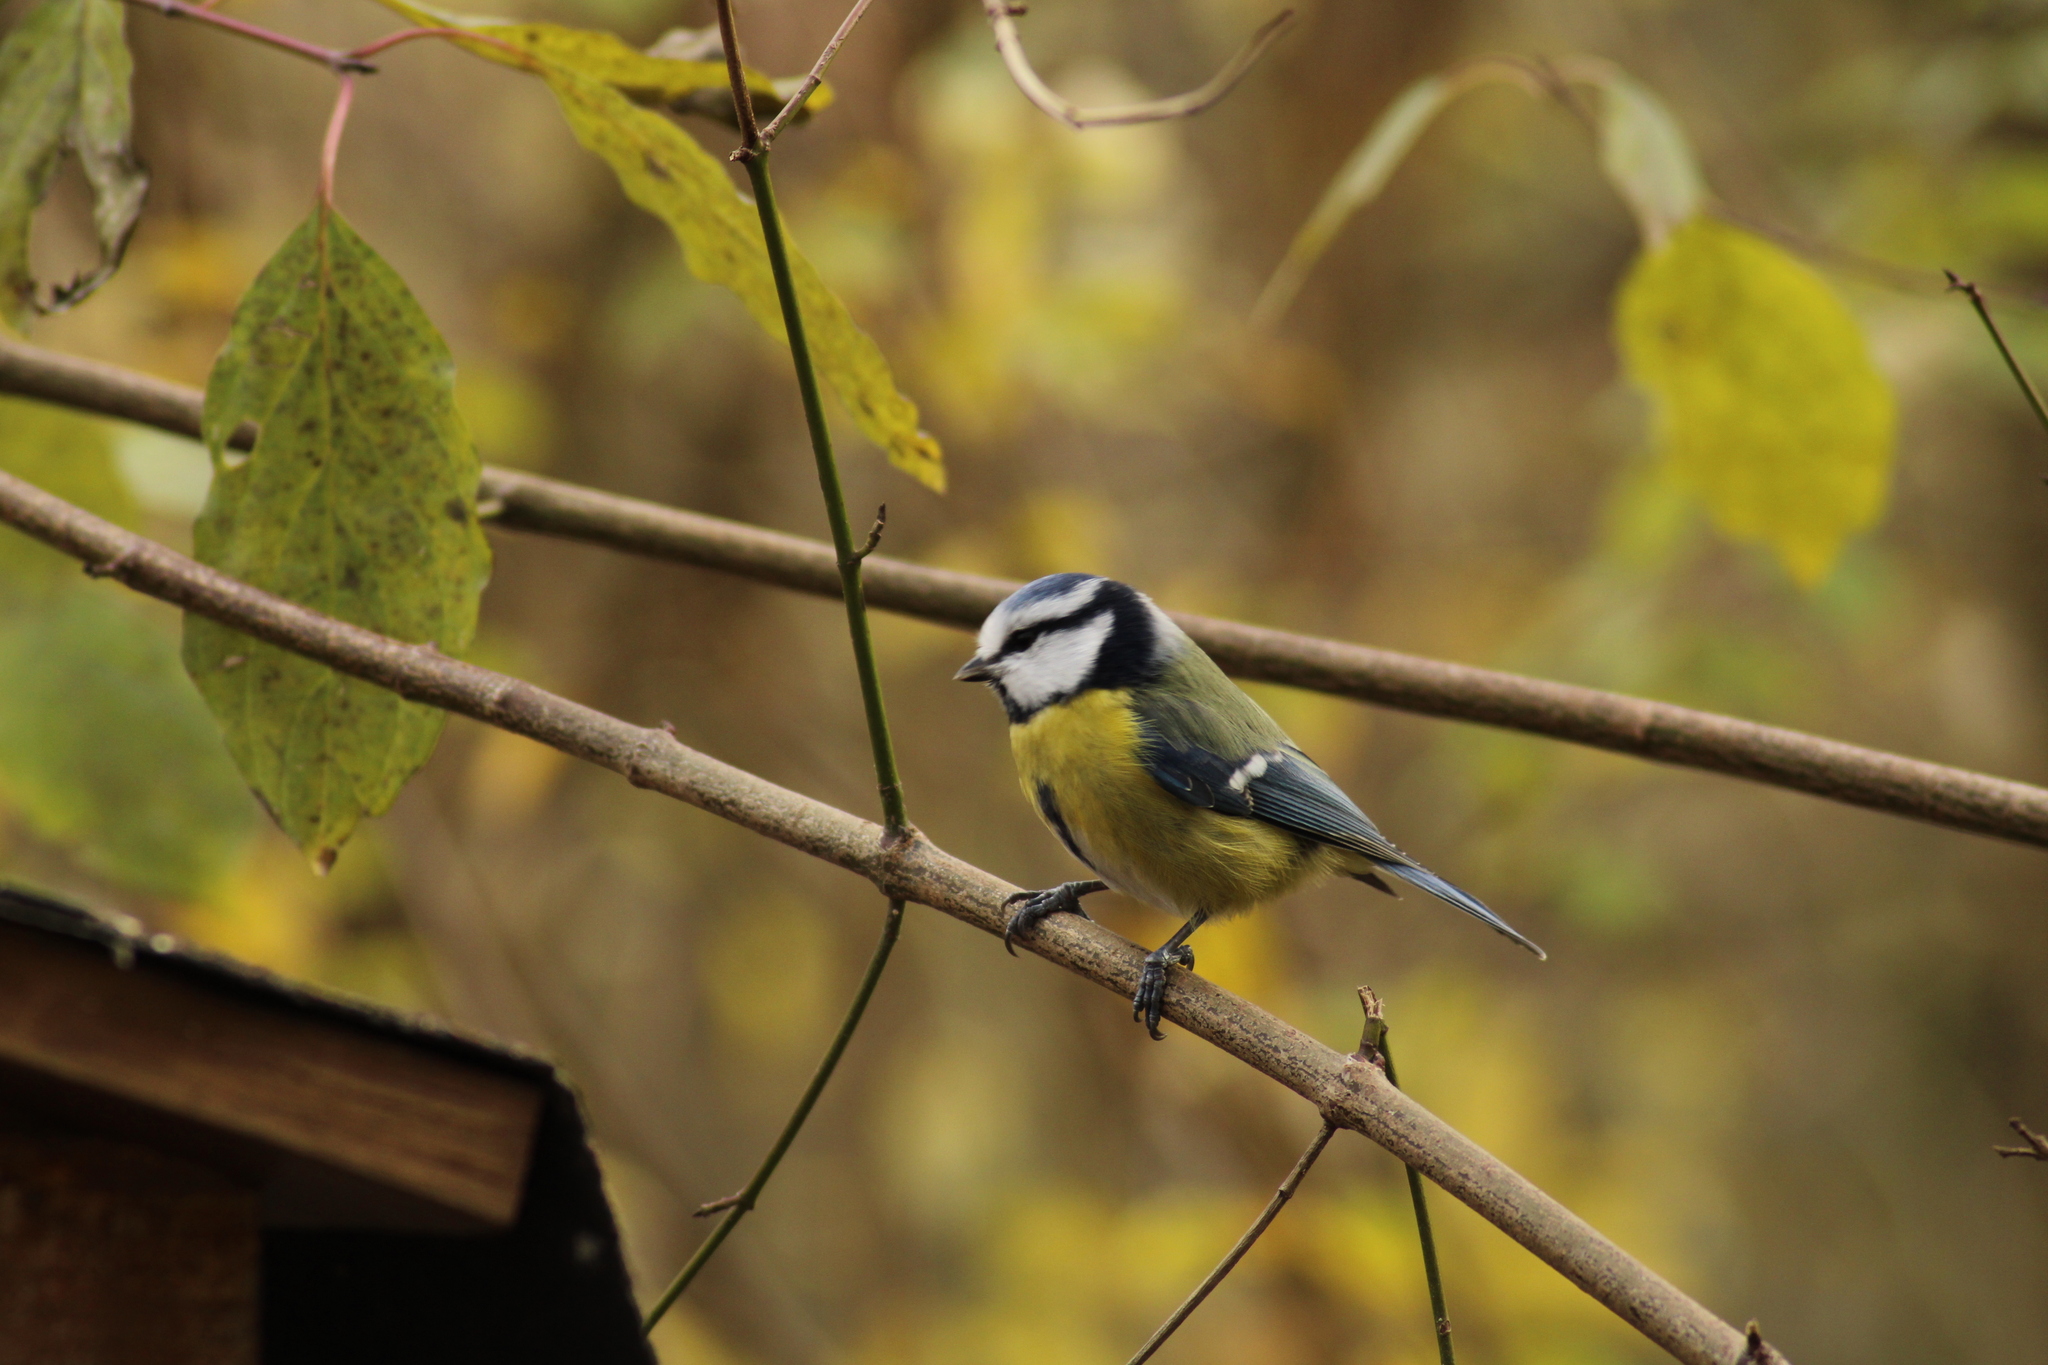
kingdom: Animalia
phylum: Chordata
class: Aves
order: Passeriformes
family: Paridae
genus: Cyanistes
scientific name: Cyanistes caeruleus
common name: Eurasian blue tit
